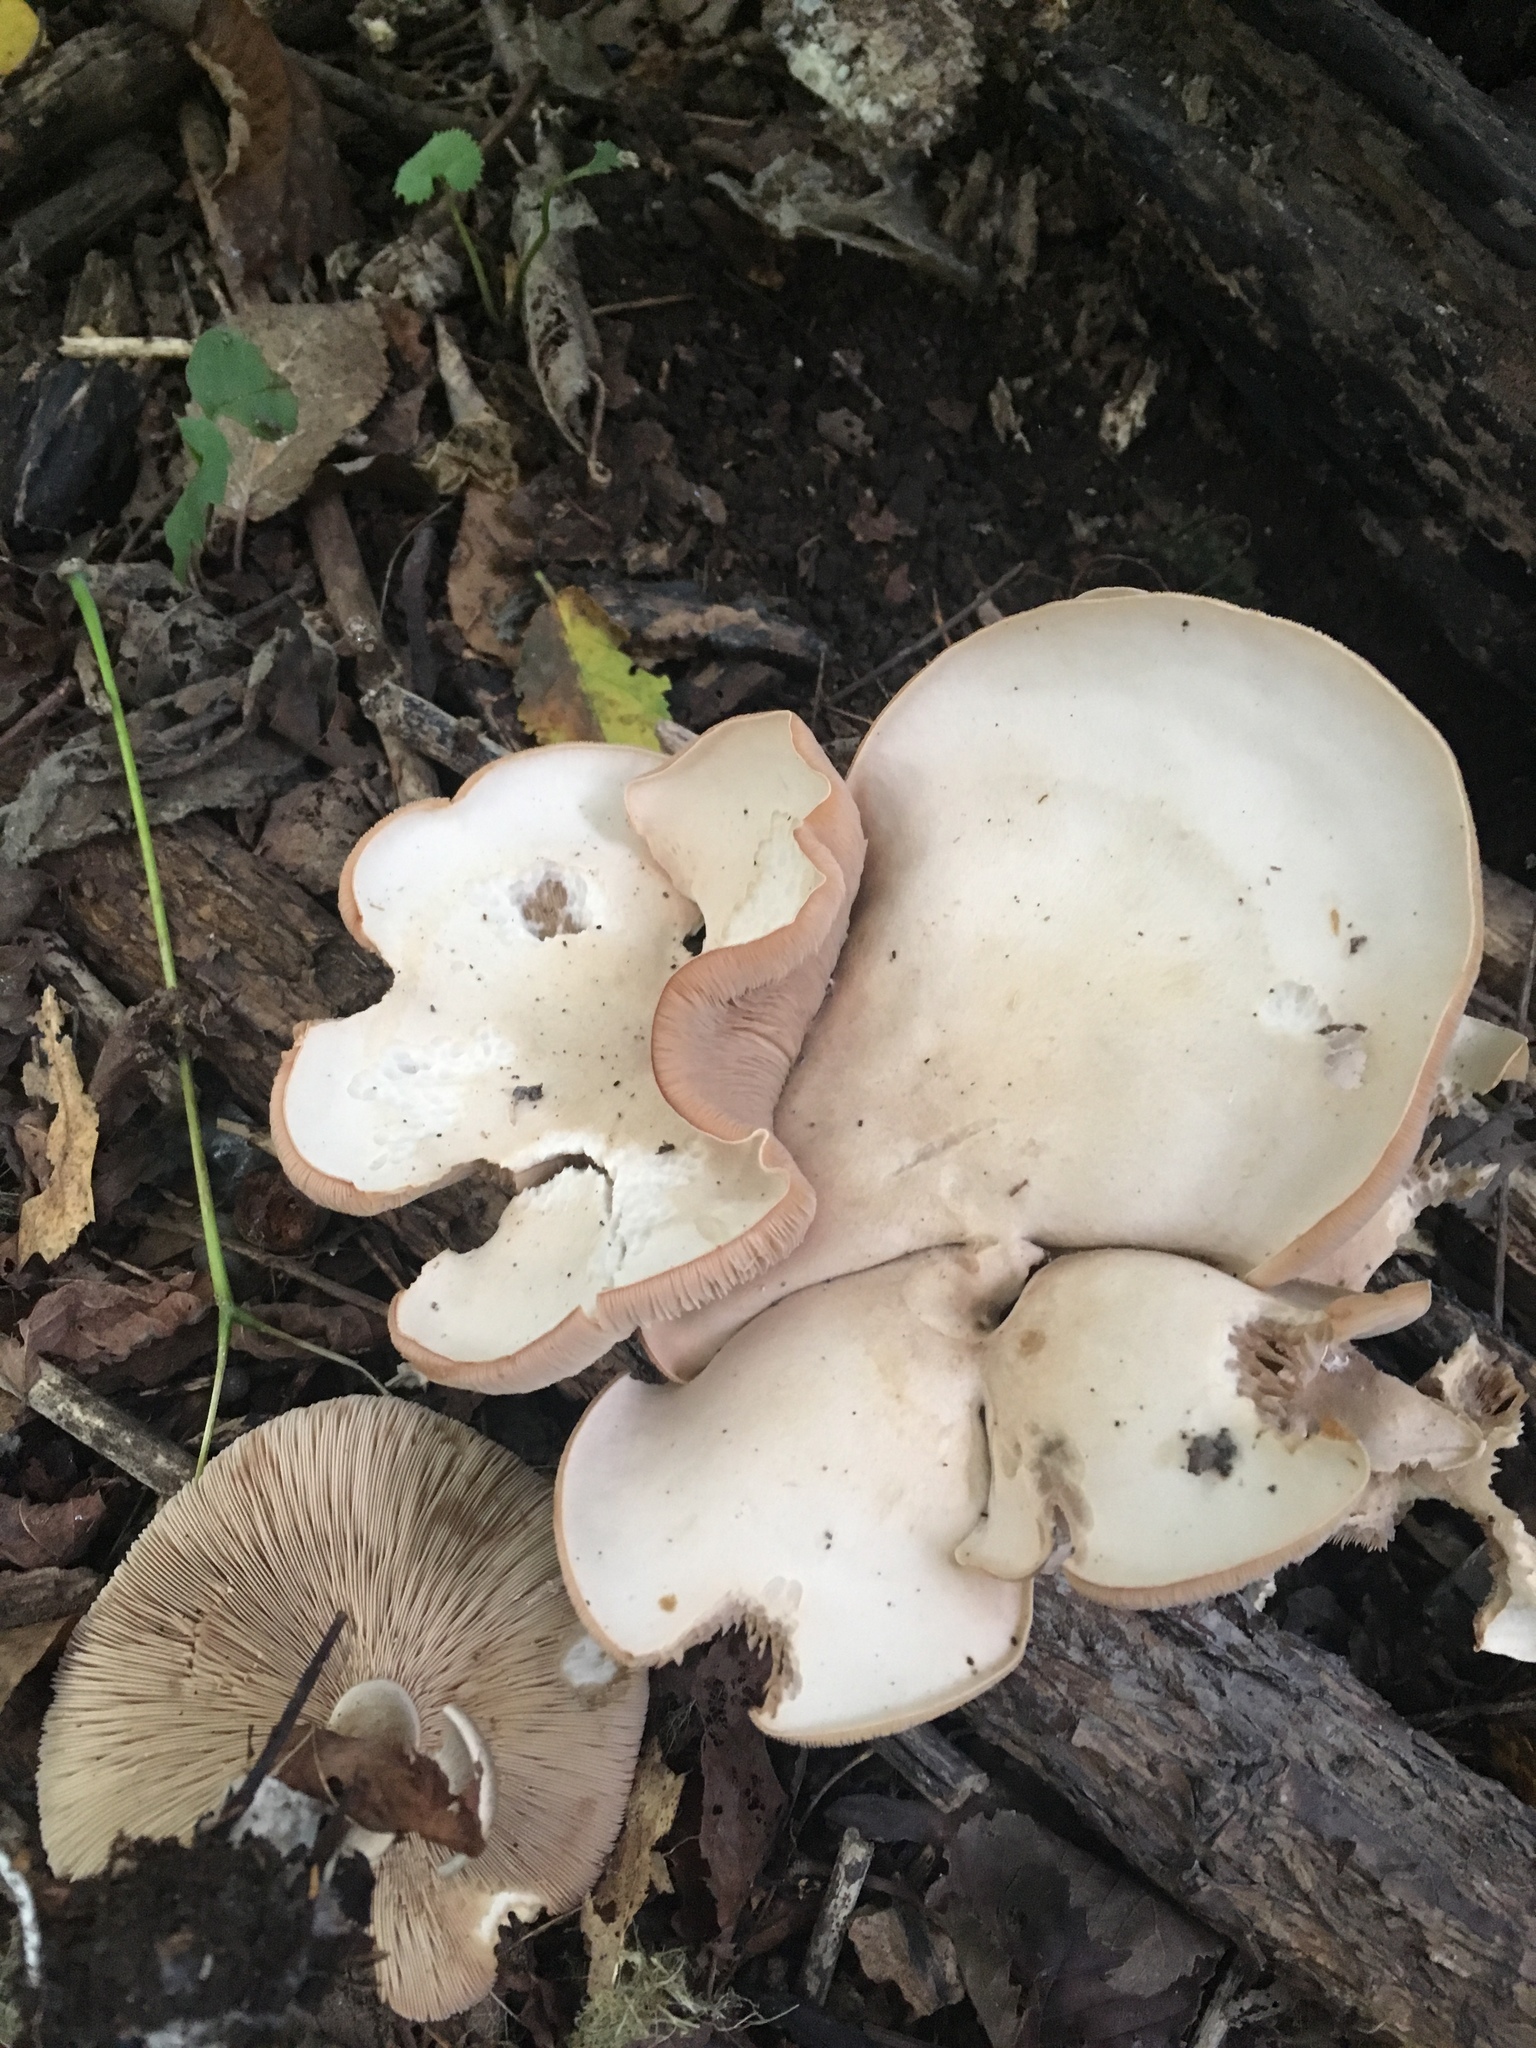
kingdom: Fungi
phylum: Basidiomycota
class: Agaricomycetes
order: Agaricales
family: Tricholomataceae
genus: Lepista
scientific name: Lepista subconnexa
